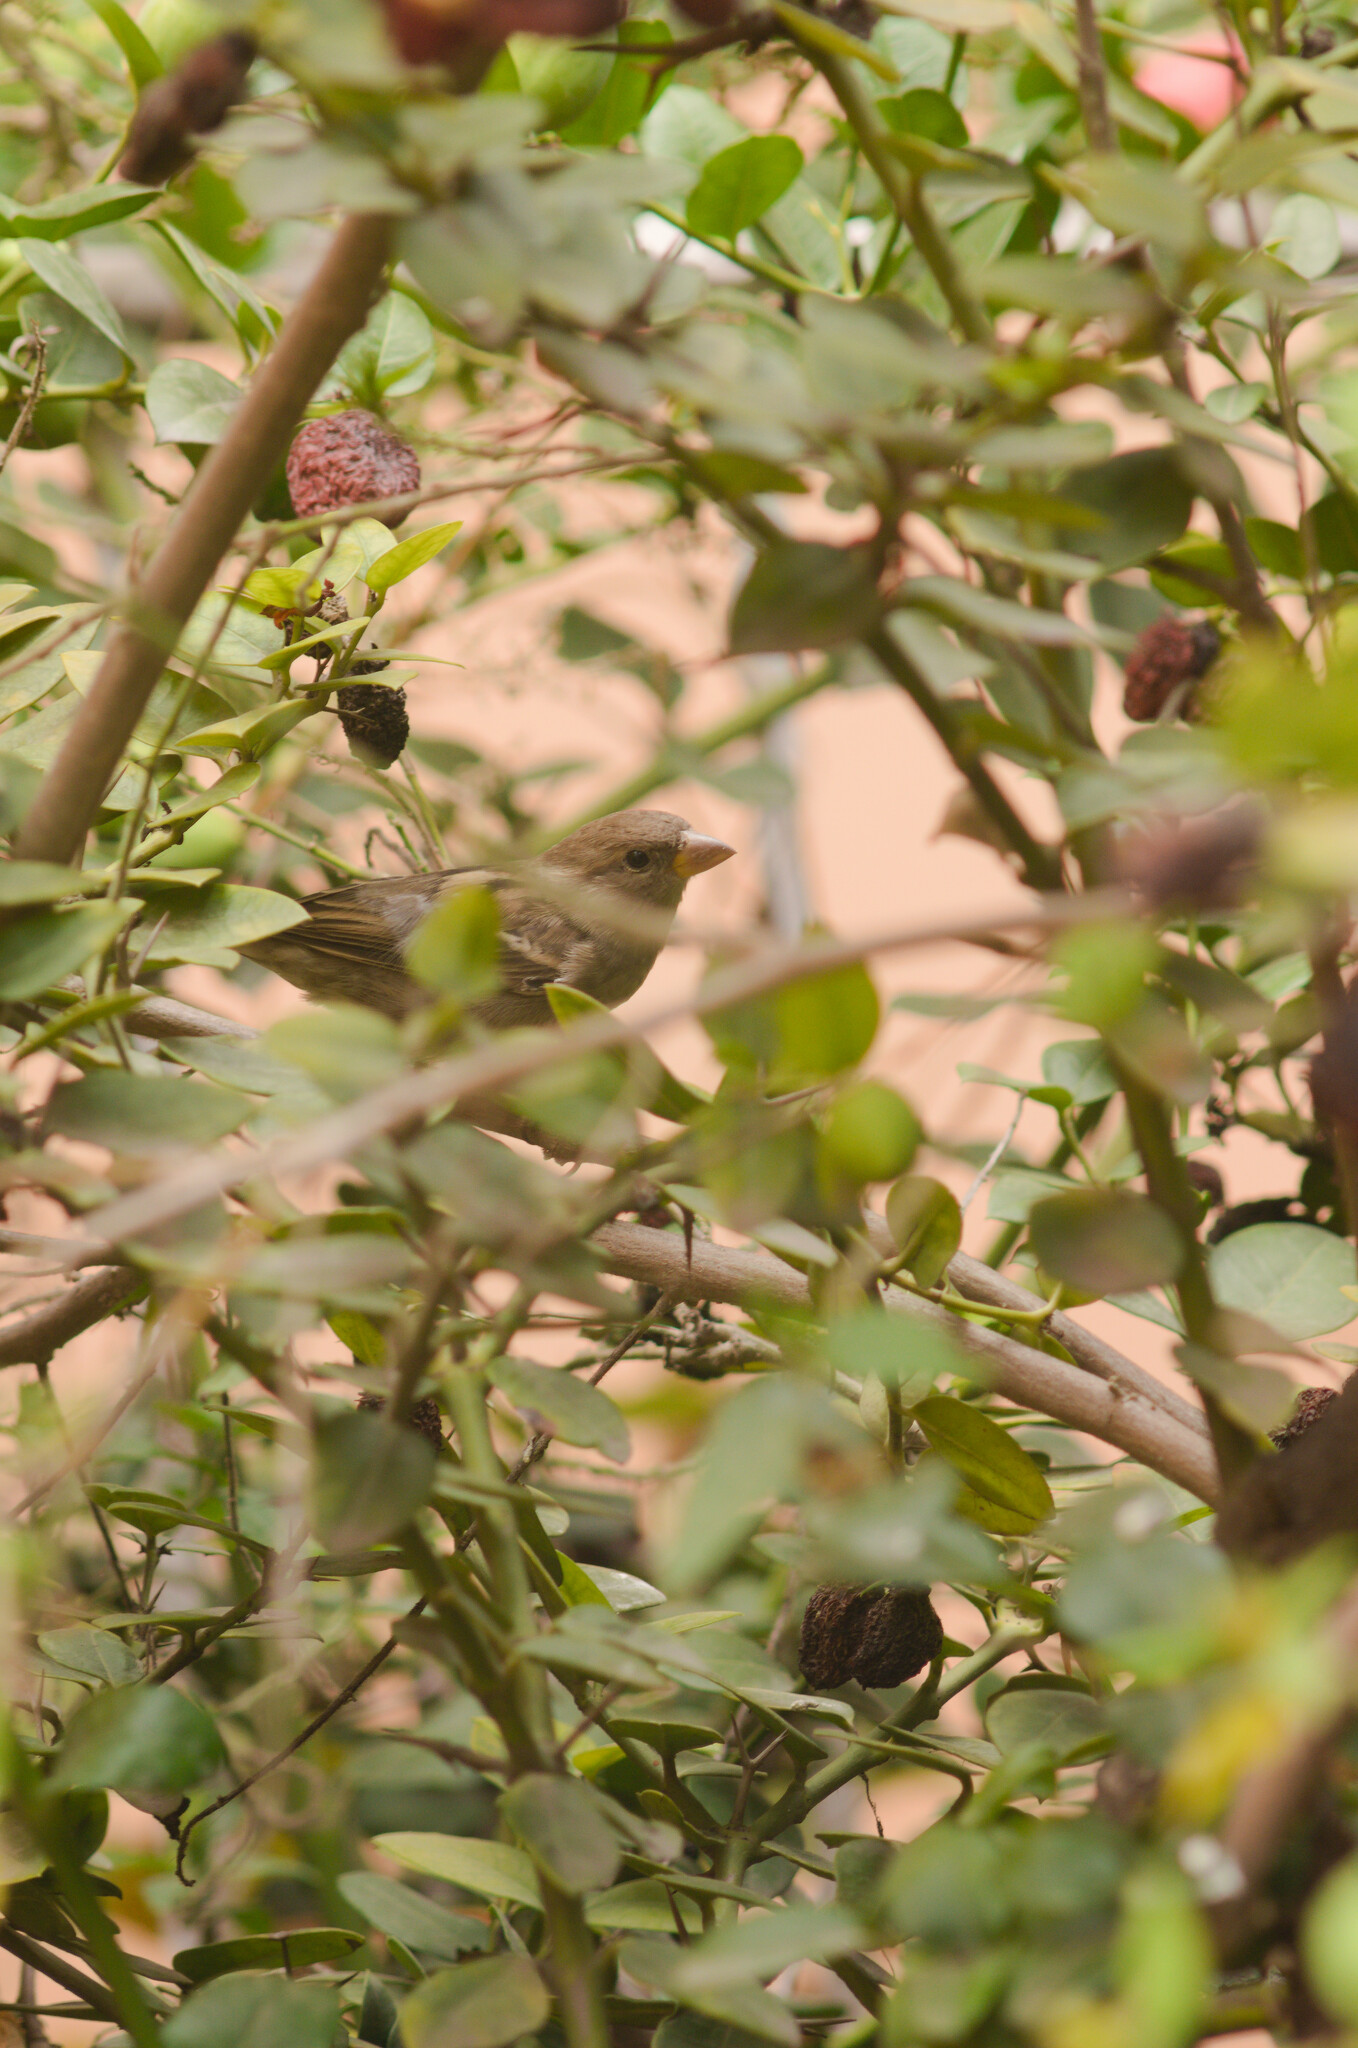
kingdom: Animalia
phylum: Chordata
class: Aves
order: Passeriformes
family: Passeridae
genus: Passer
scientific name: Passer domesticus
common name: House sparrow
